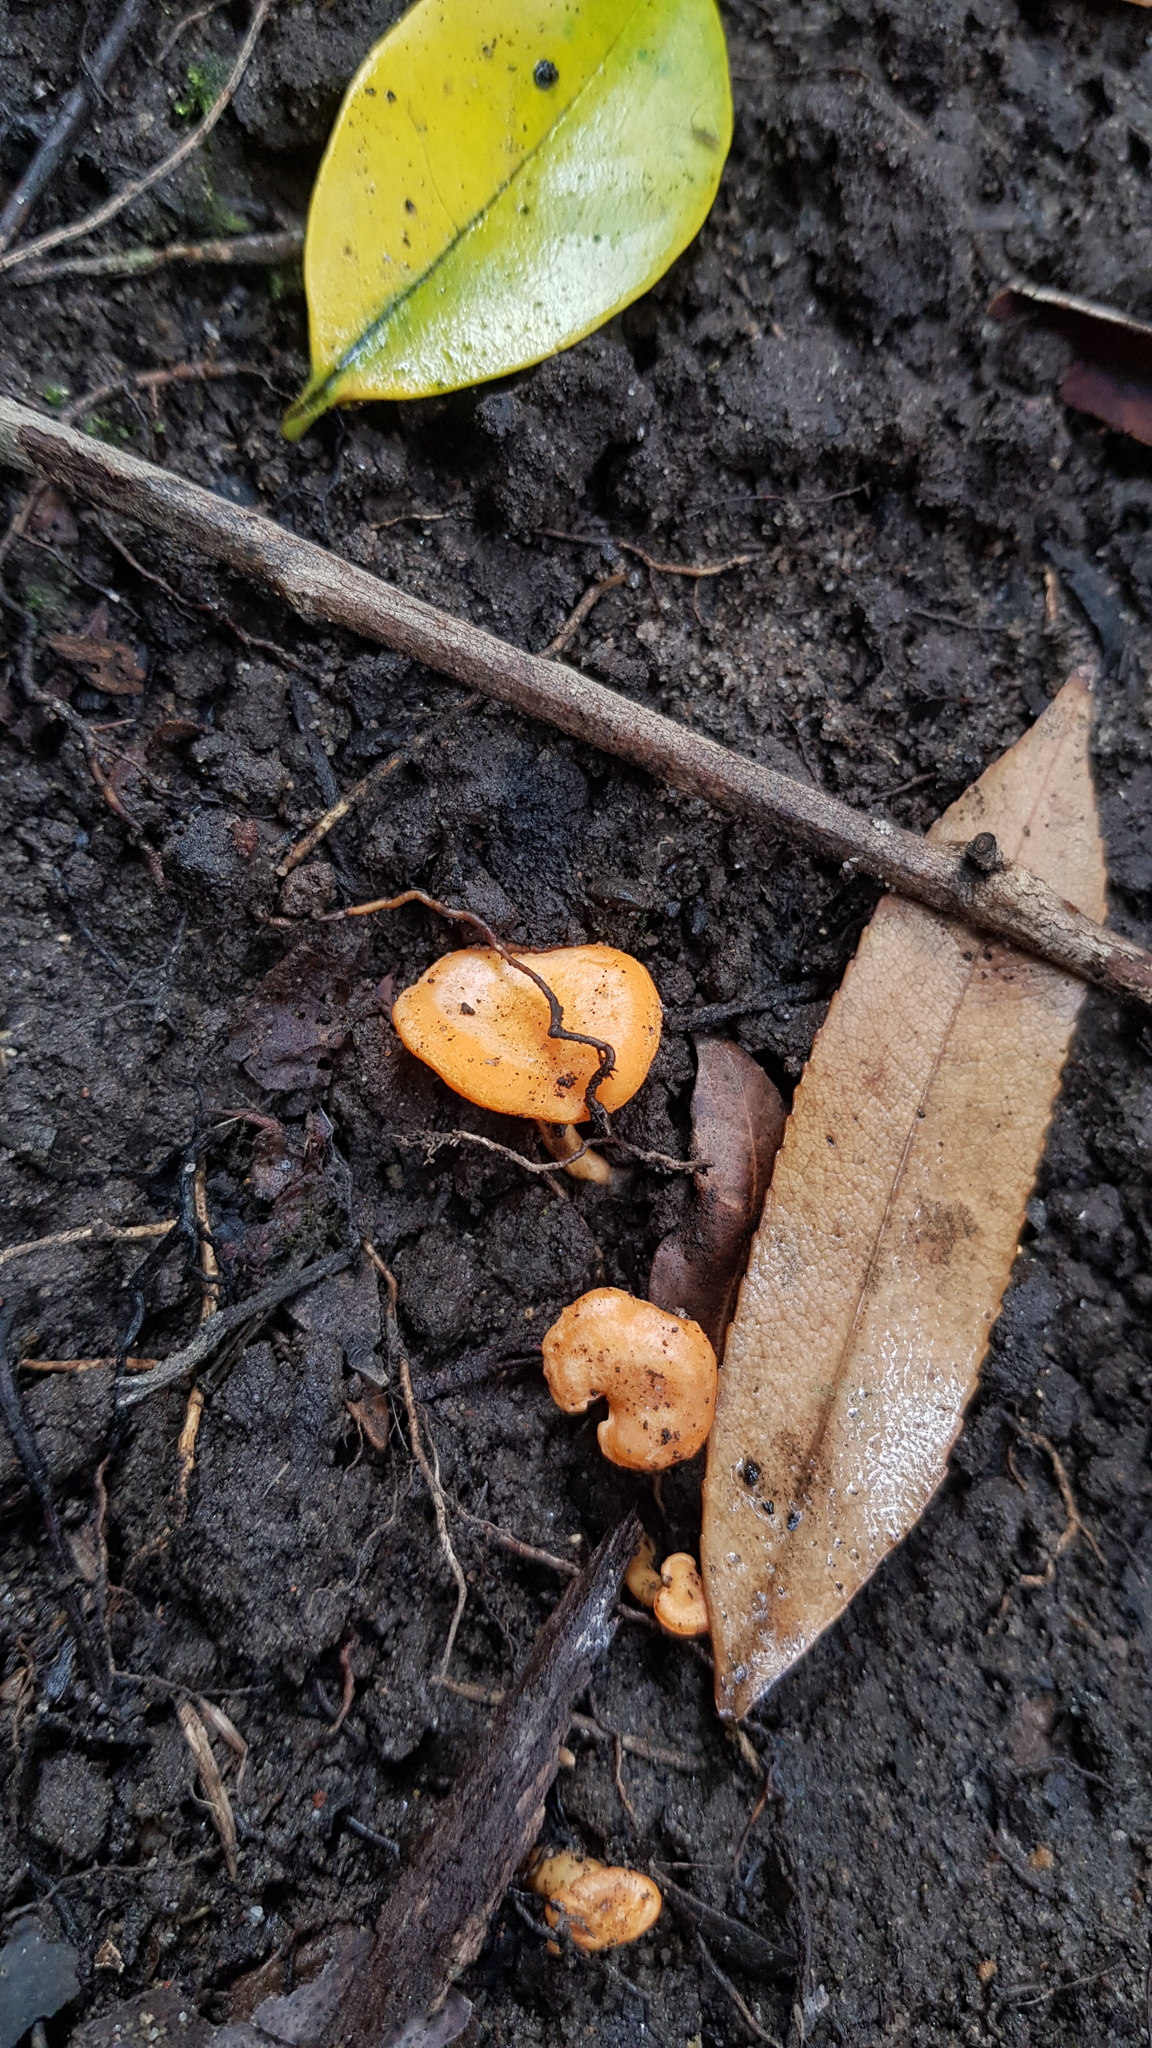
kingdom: Fungi
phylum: Basidiomycota
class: Agaricomycetes
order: Cantharellales
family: Hydnaceae
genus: Cantharellus
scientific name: Cantharellus
